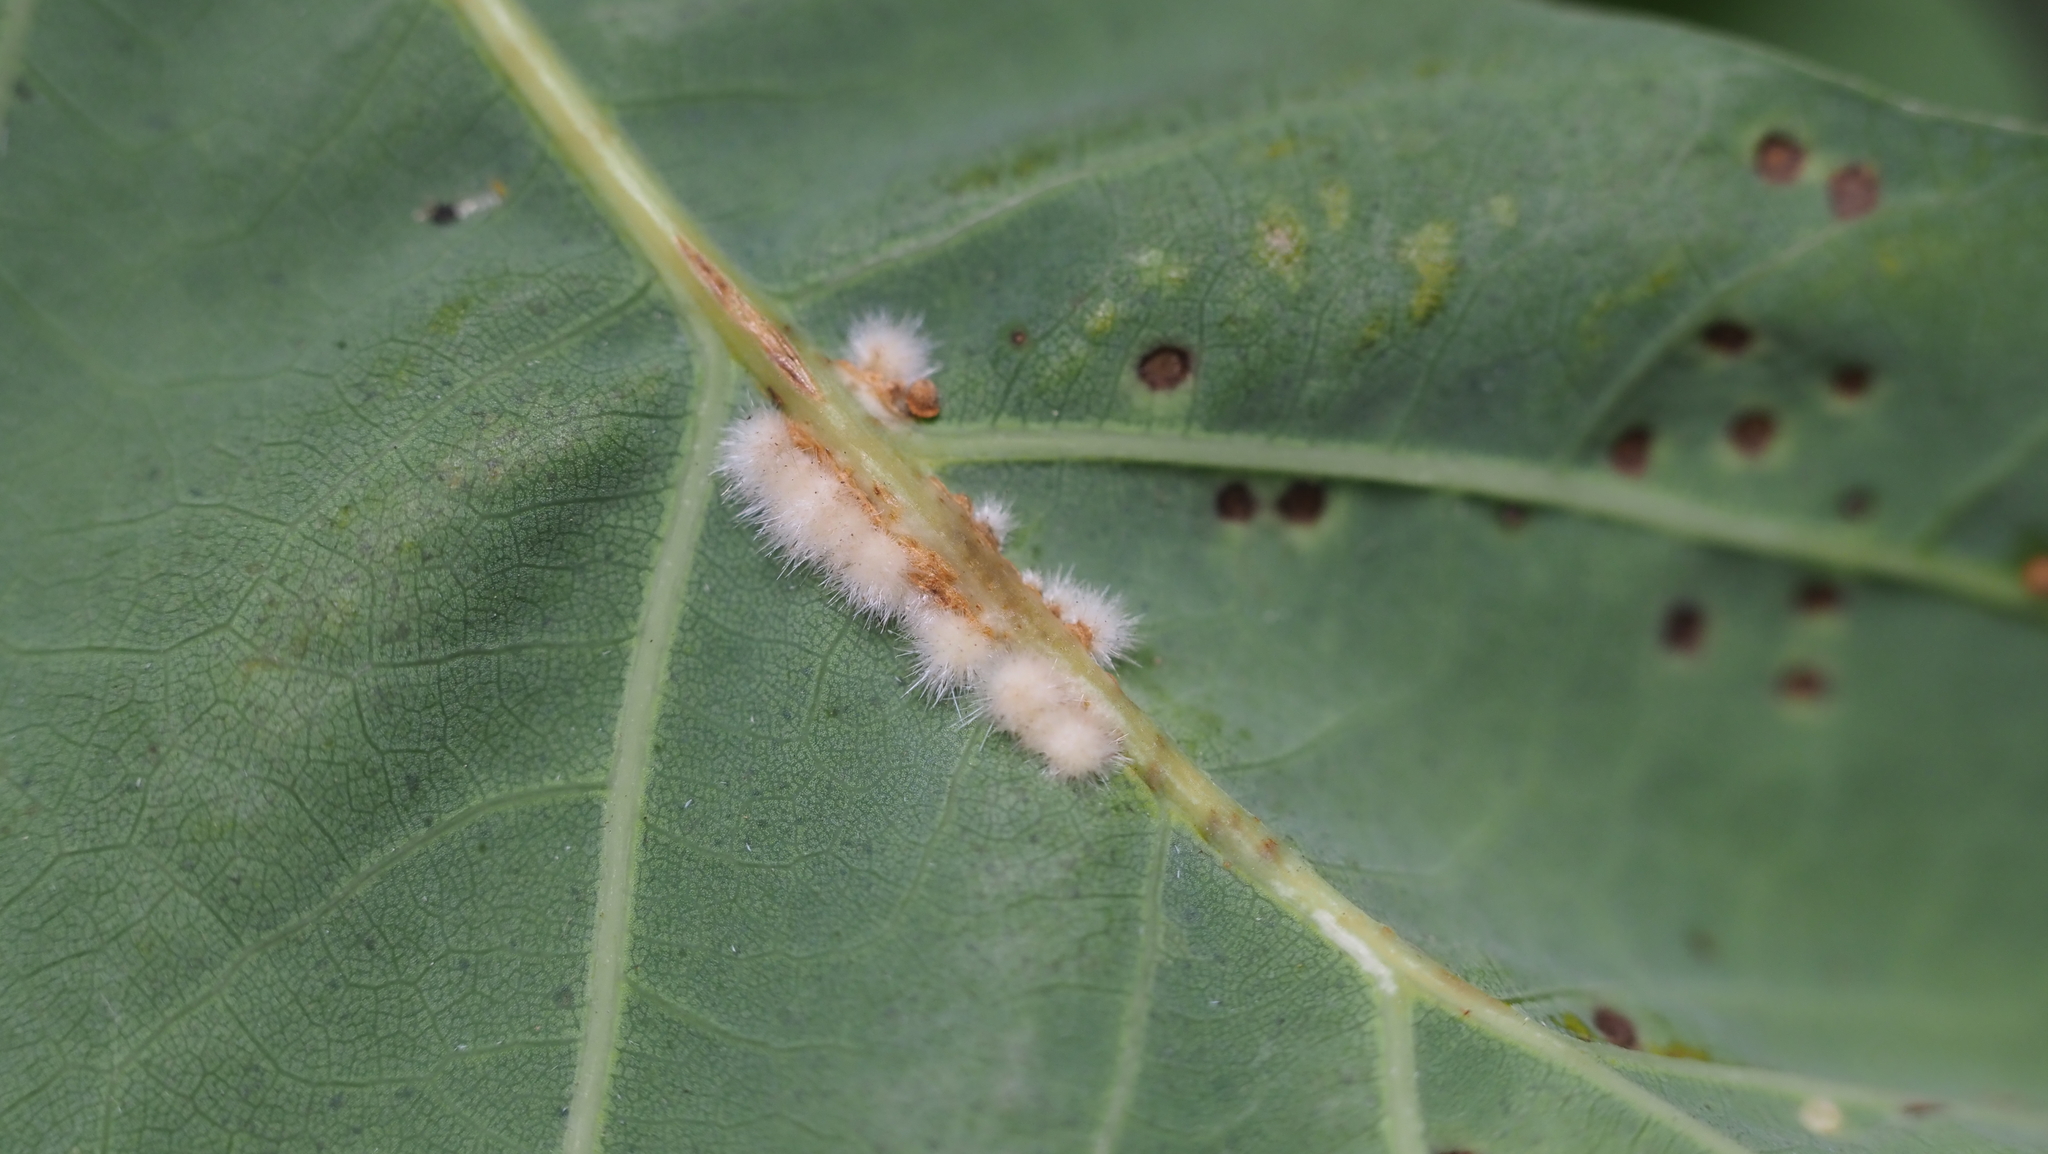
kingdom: Animalia
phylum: Arthropoda
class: Insecta
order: Hymenoptera
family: Cynipidae
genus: Andricus
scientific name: Andricus
